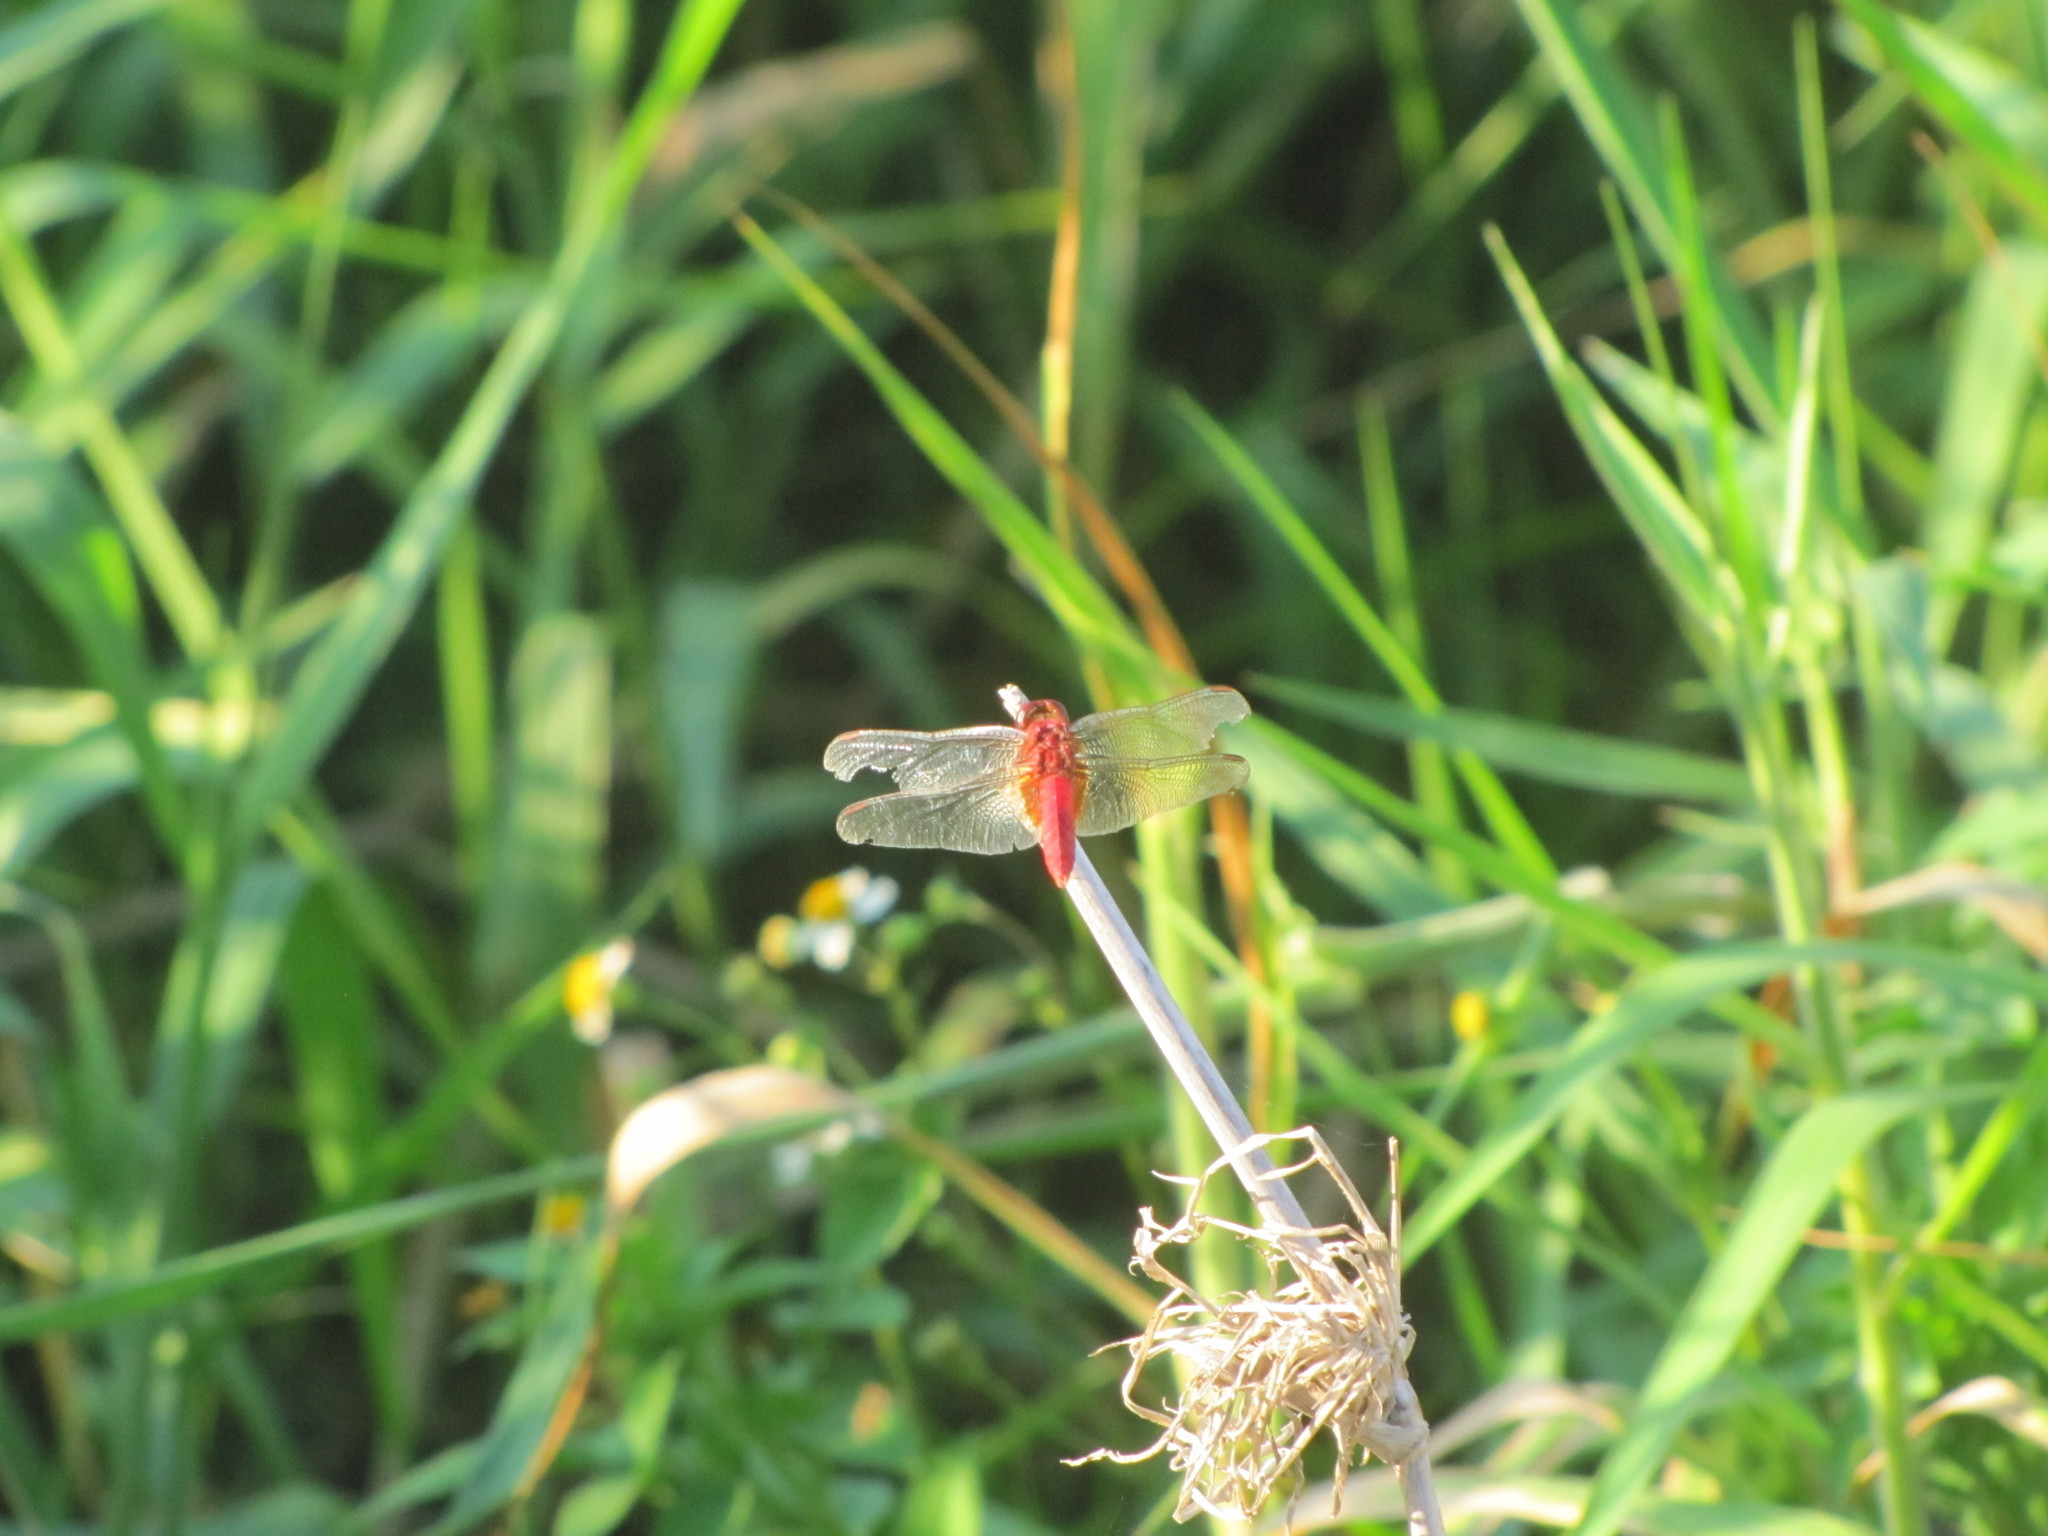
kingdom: Animalia
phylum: Arthropoda
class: Insecta
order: Odonata
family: Libellulidae
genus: Crocothemis
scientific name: Crocothemis servilia
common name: Scarlet skimmer
